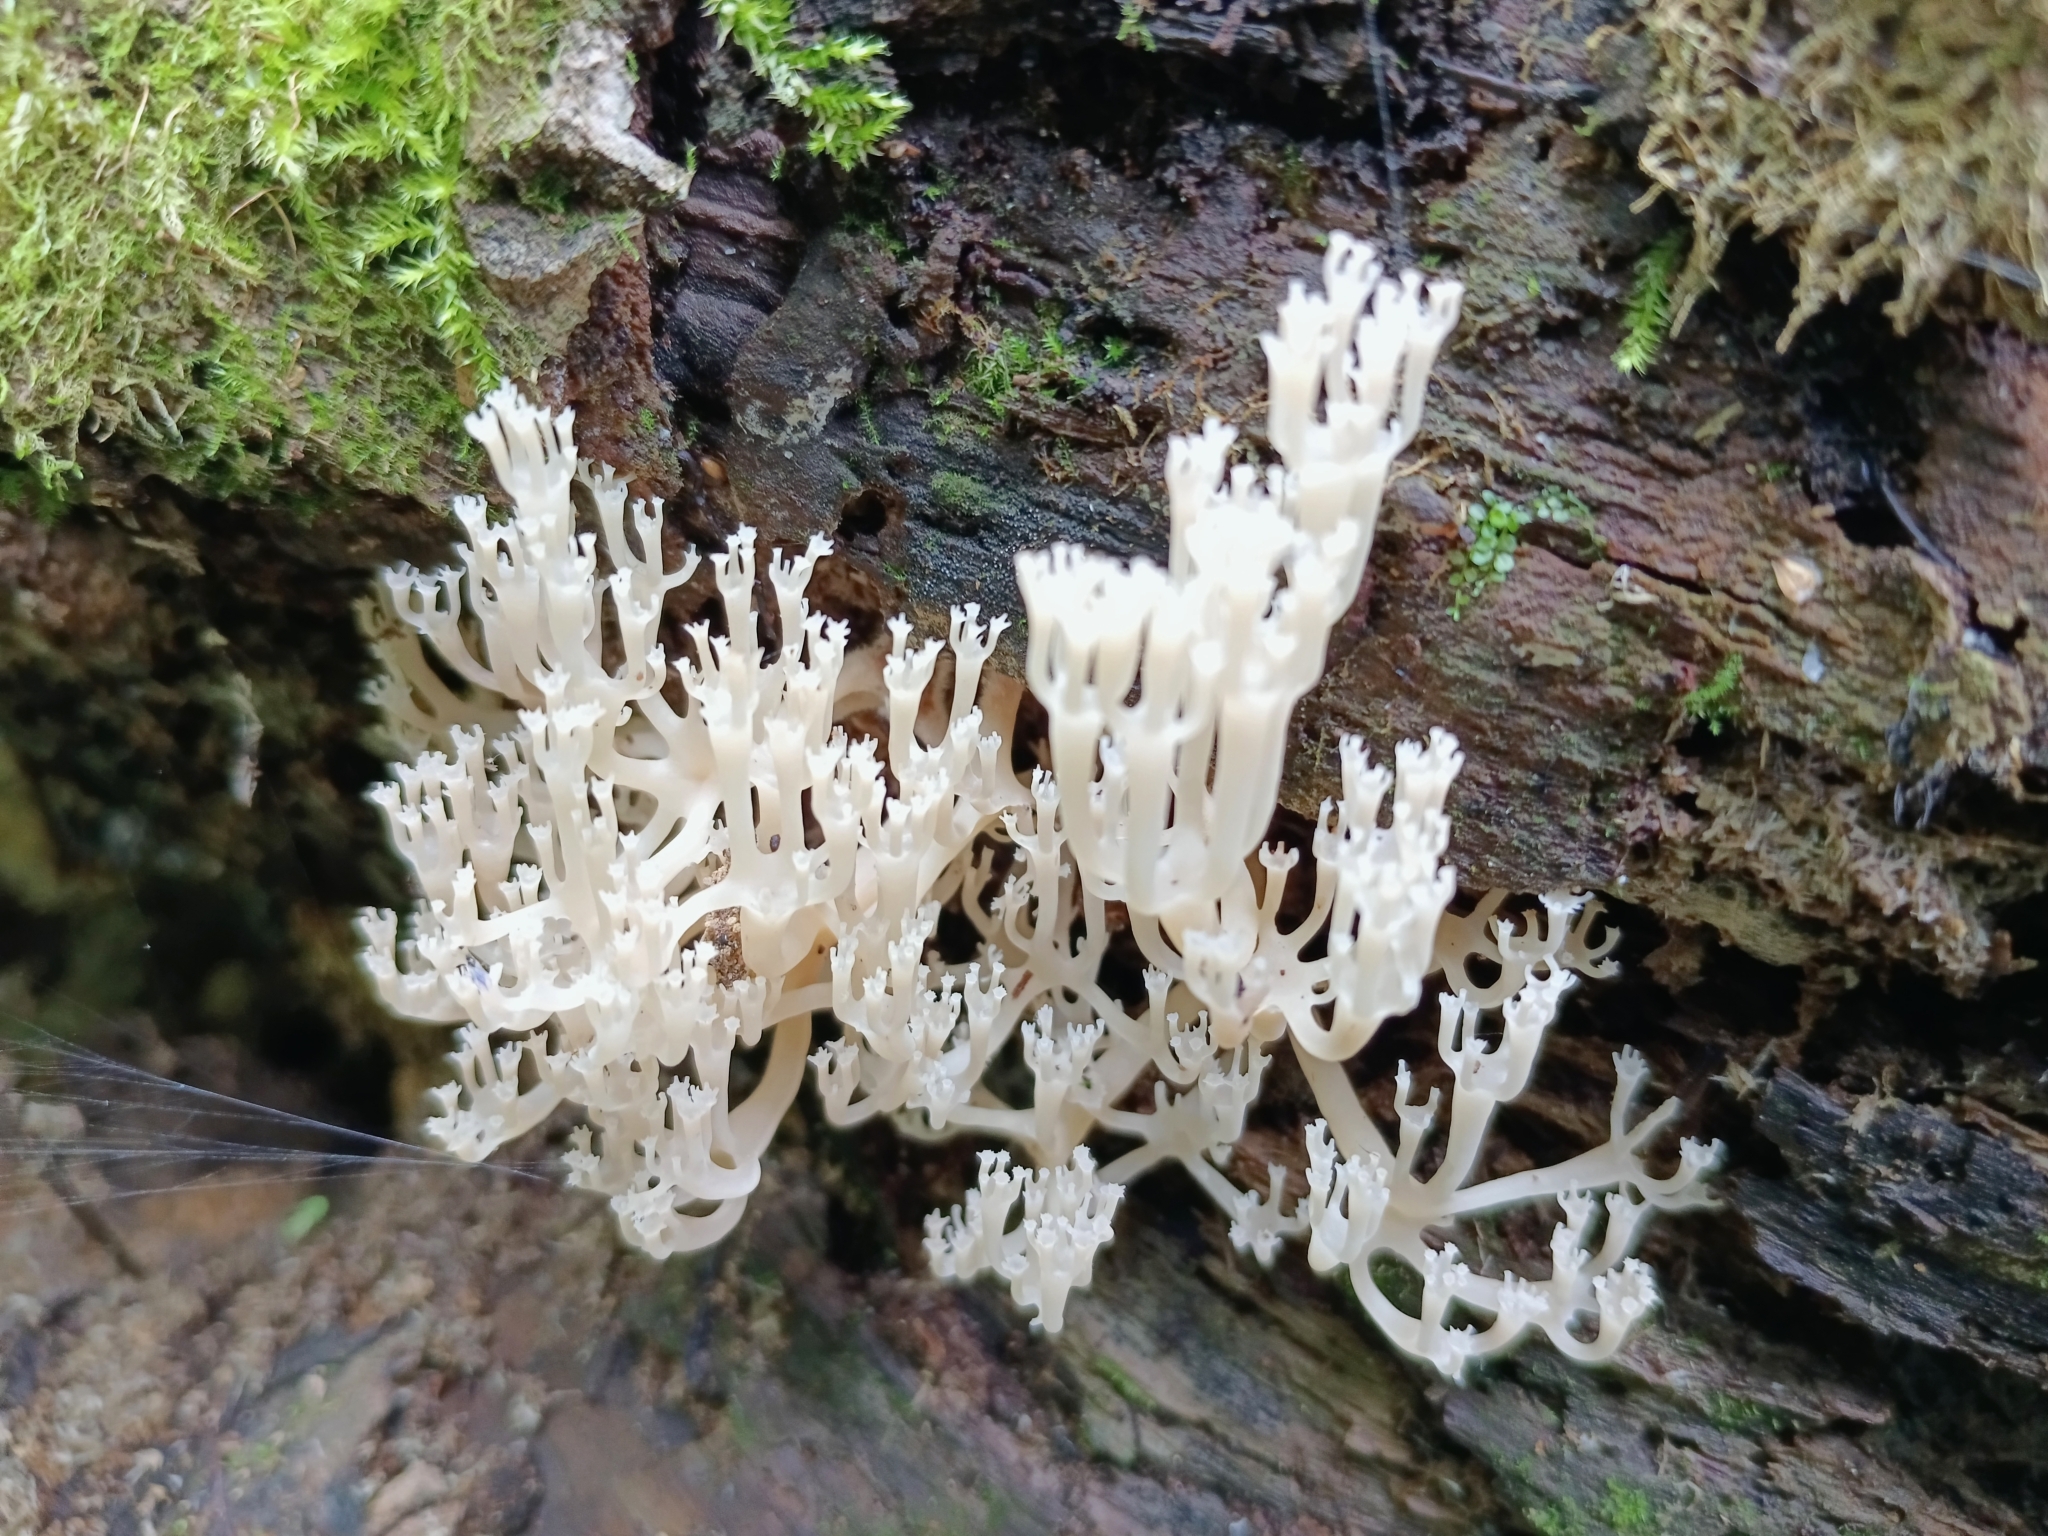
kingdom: Fungi
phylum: Basidiomycota
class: Agaricomycetes
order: Russulales
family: Auriscalpiaceae
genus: Artomyces
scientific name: Artomyces pyxidatus
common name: Crown-tipped coral fungus
